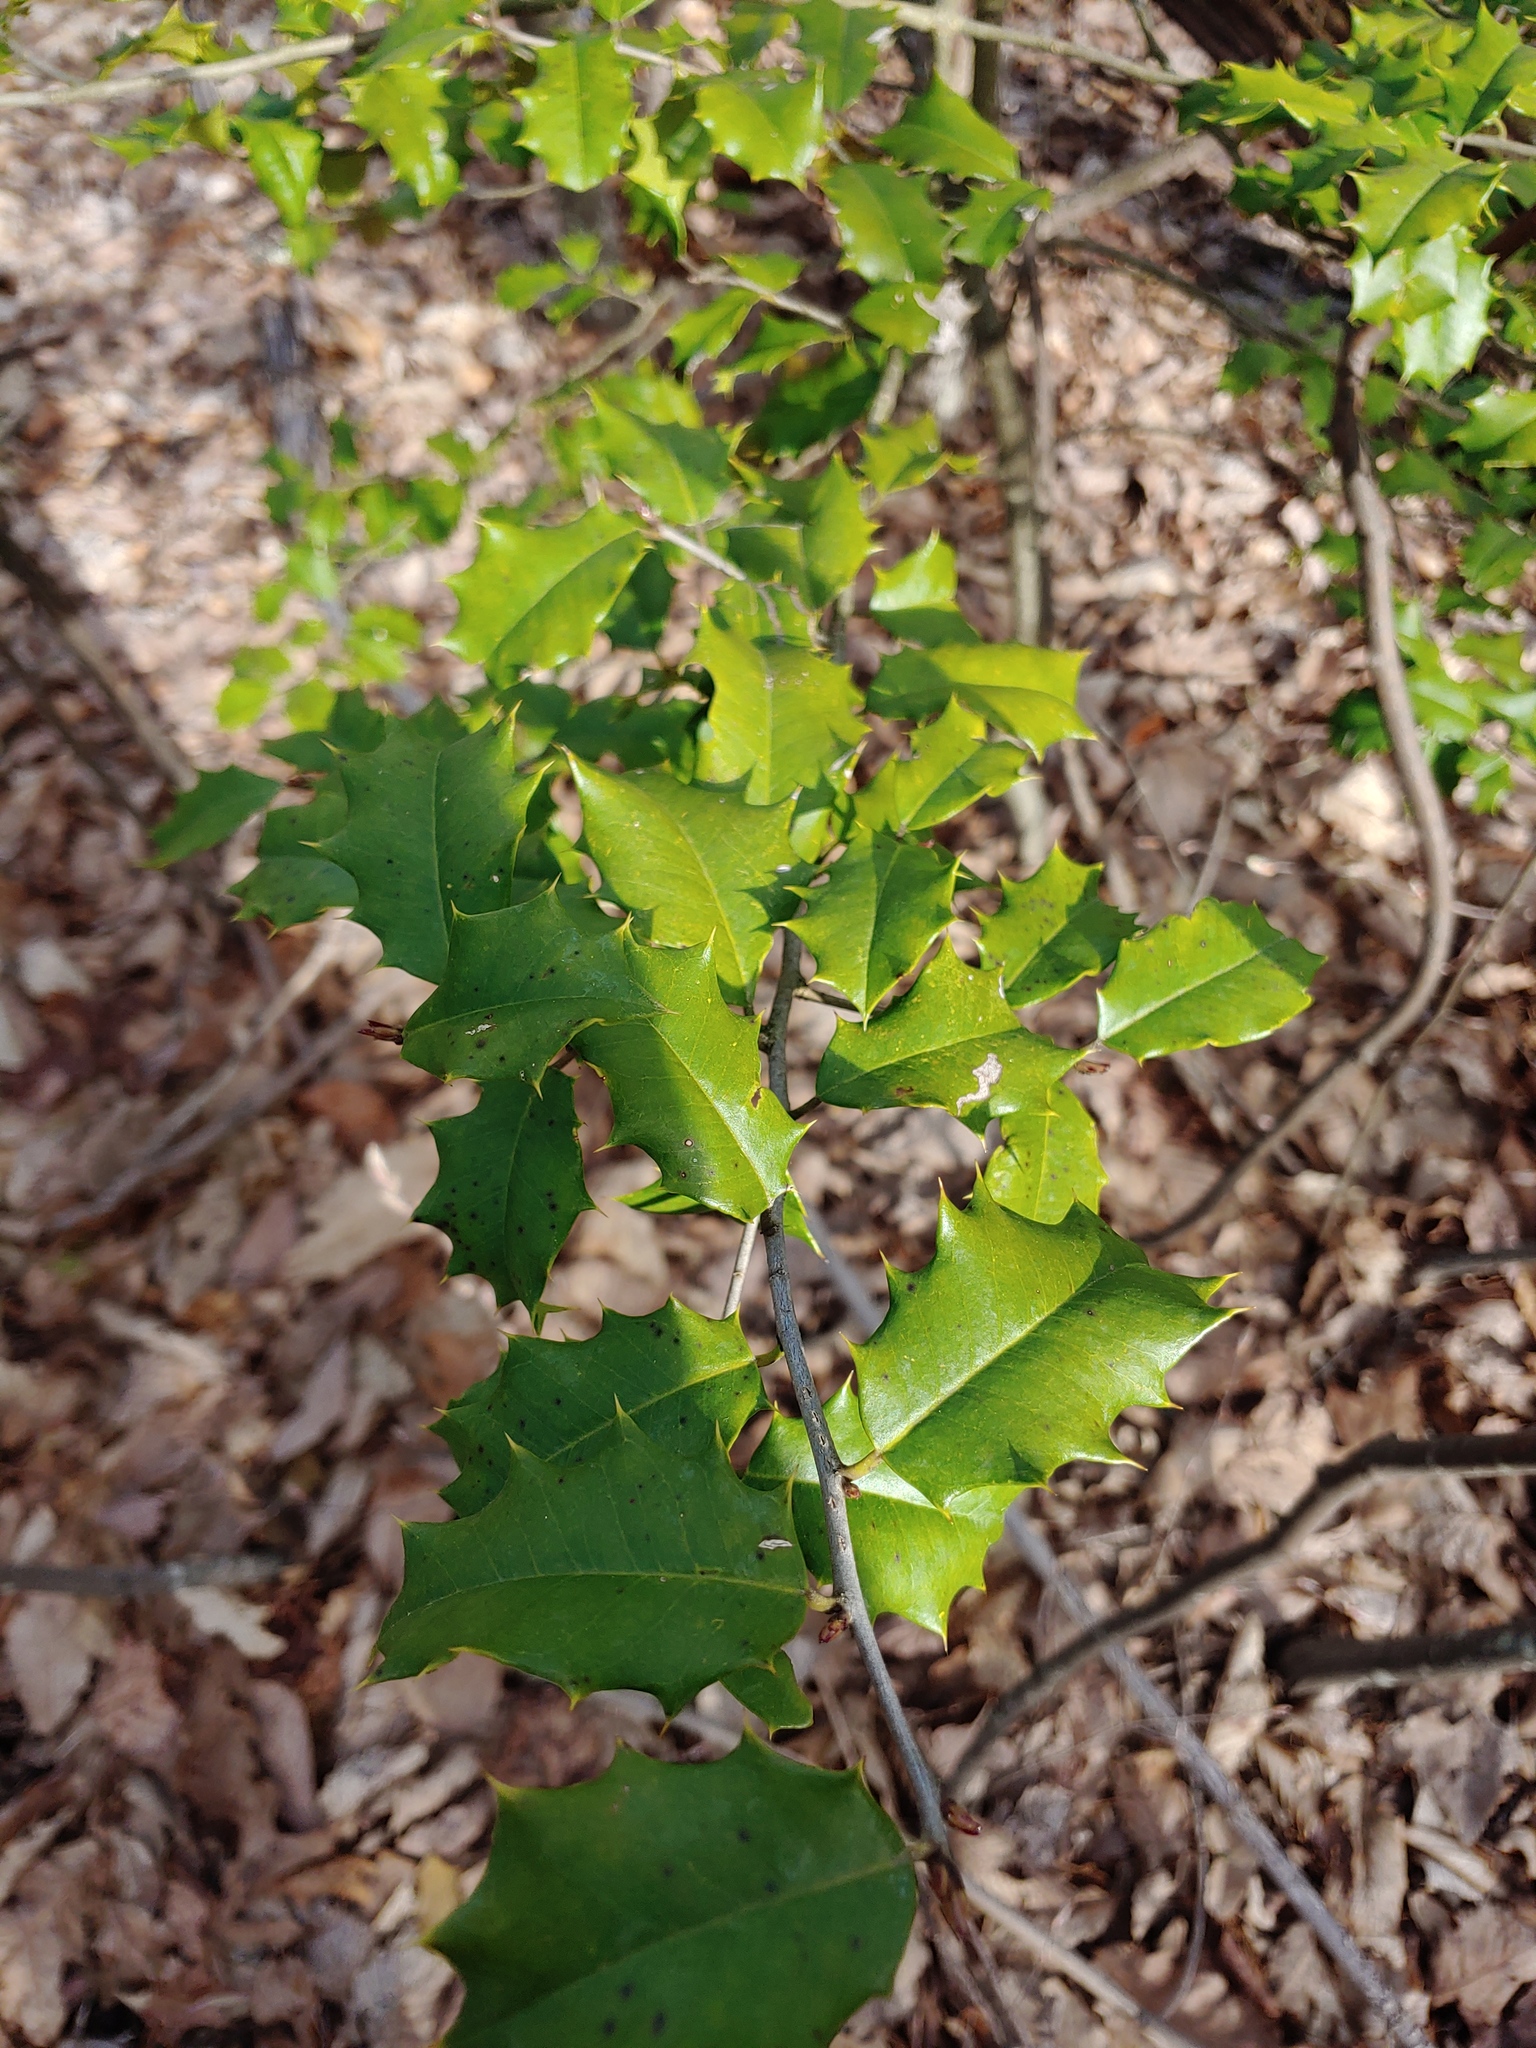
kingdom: Plantae
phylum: Tracheophyta
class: Magnoliopsida
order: Aquifoliales
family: Aquifoliaceae
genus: Ilex
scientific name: Ilex opaca
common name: American holly
